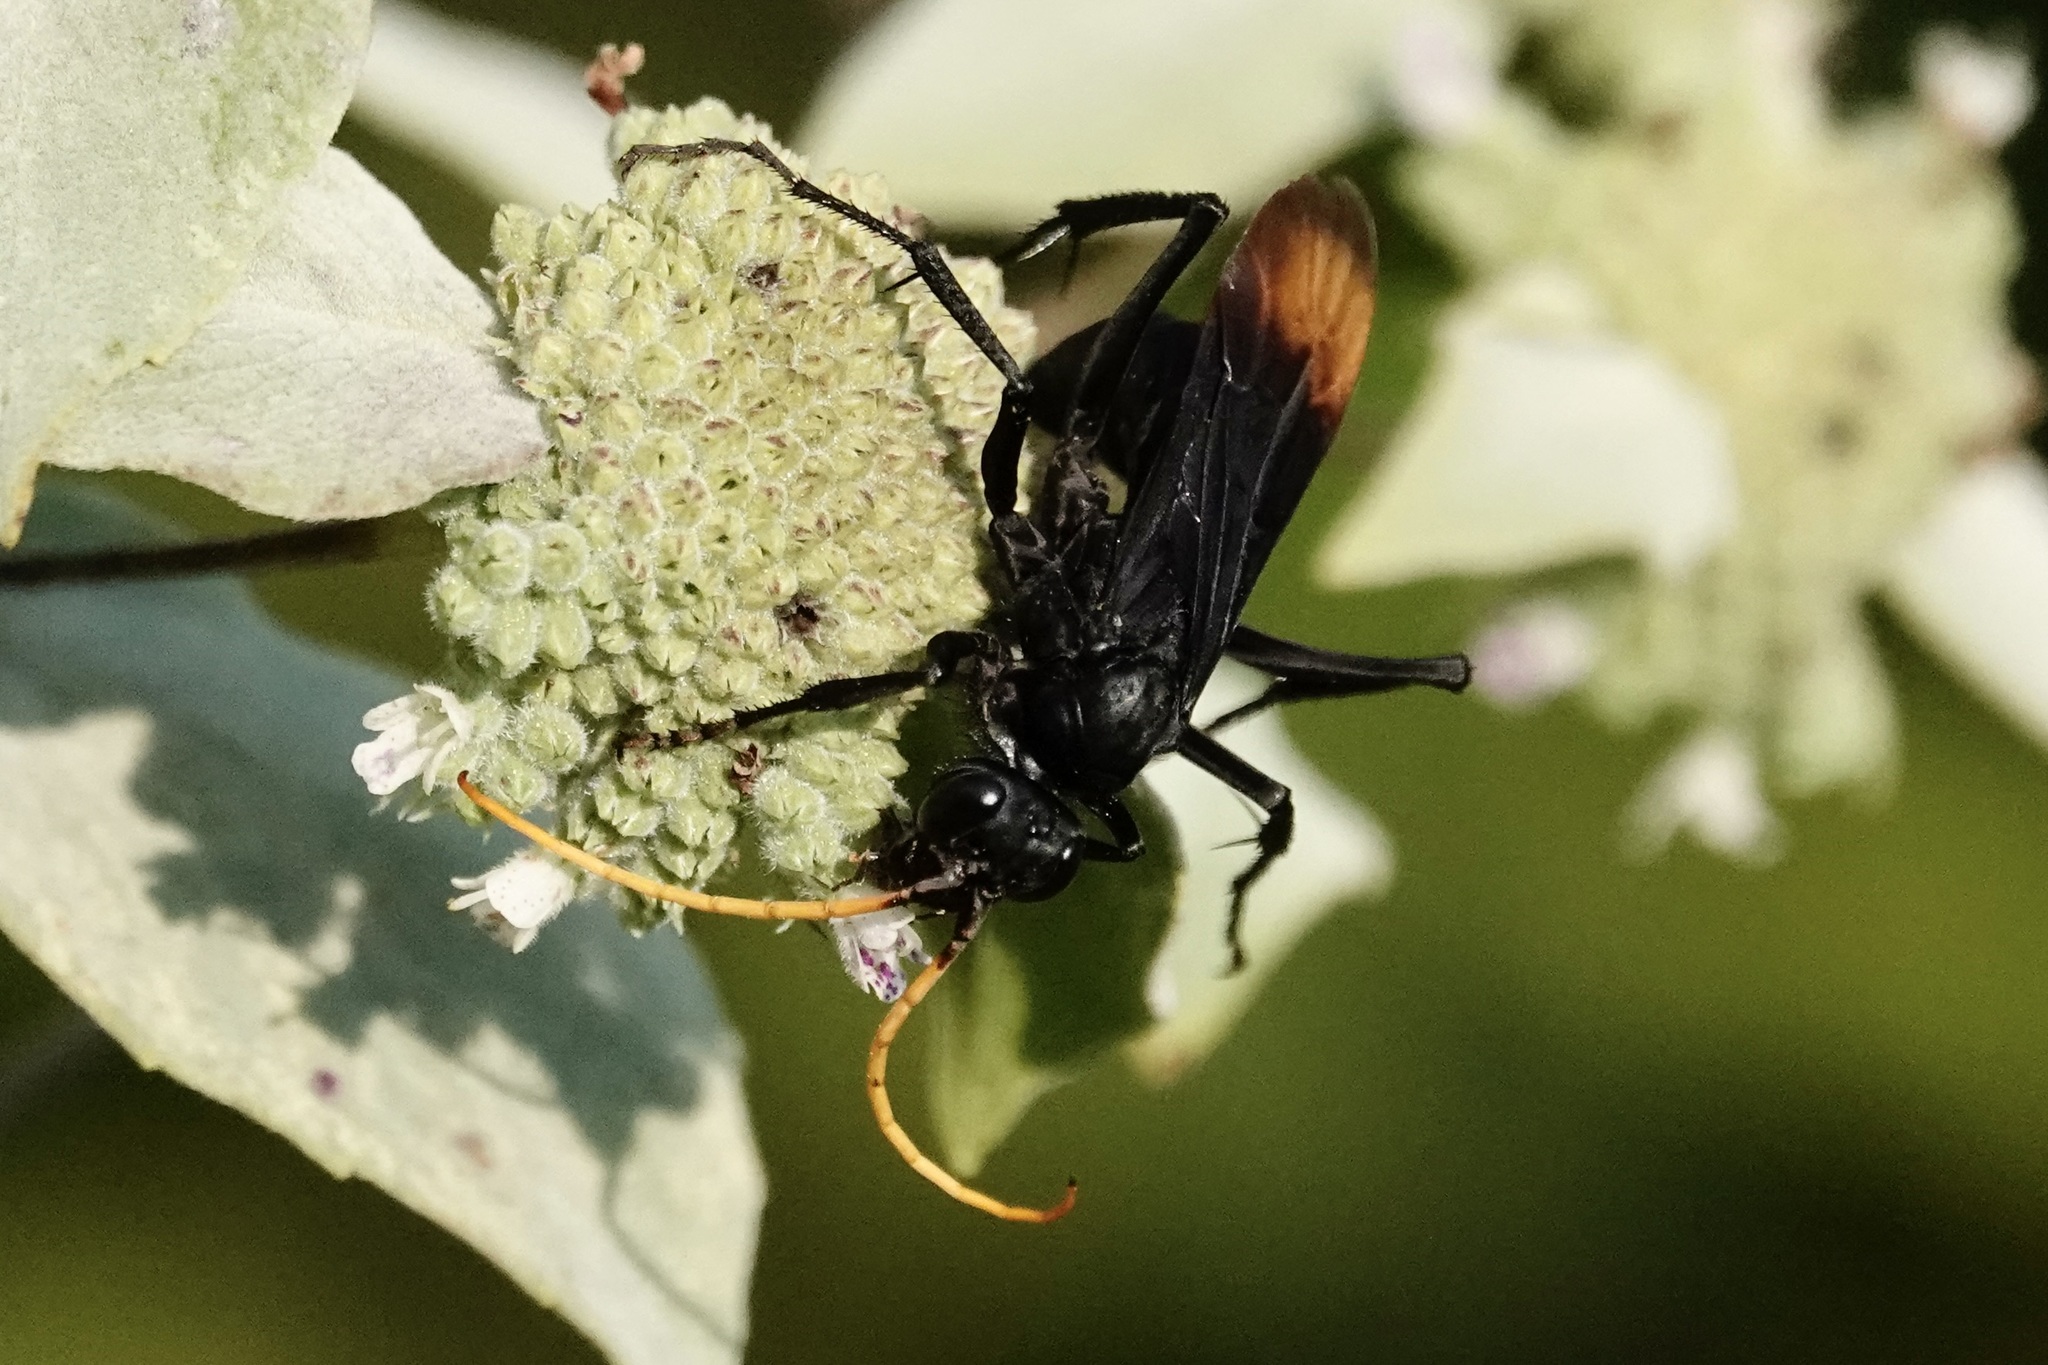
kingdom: Animalia
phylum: Arthropoda
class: Insecta
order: Hymenoptera
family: Pompilidae
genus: Entypus
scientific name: Entypus unifasciatus
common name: Eastern tawny-horned spider wasp
